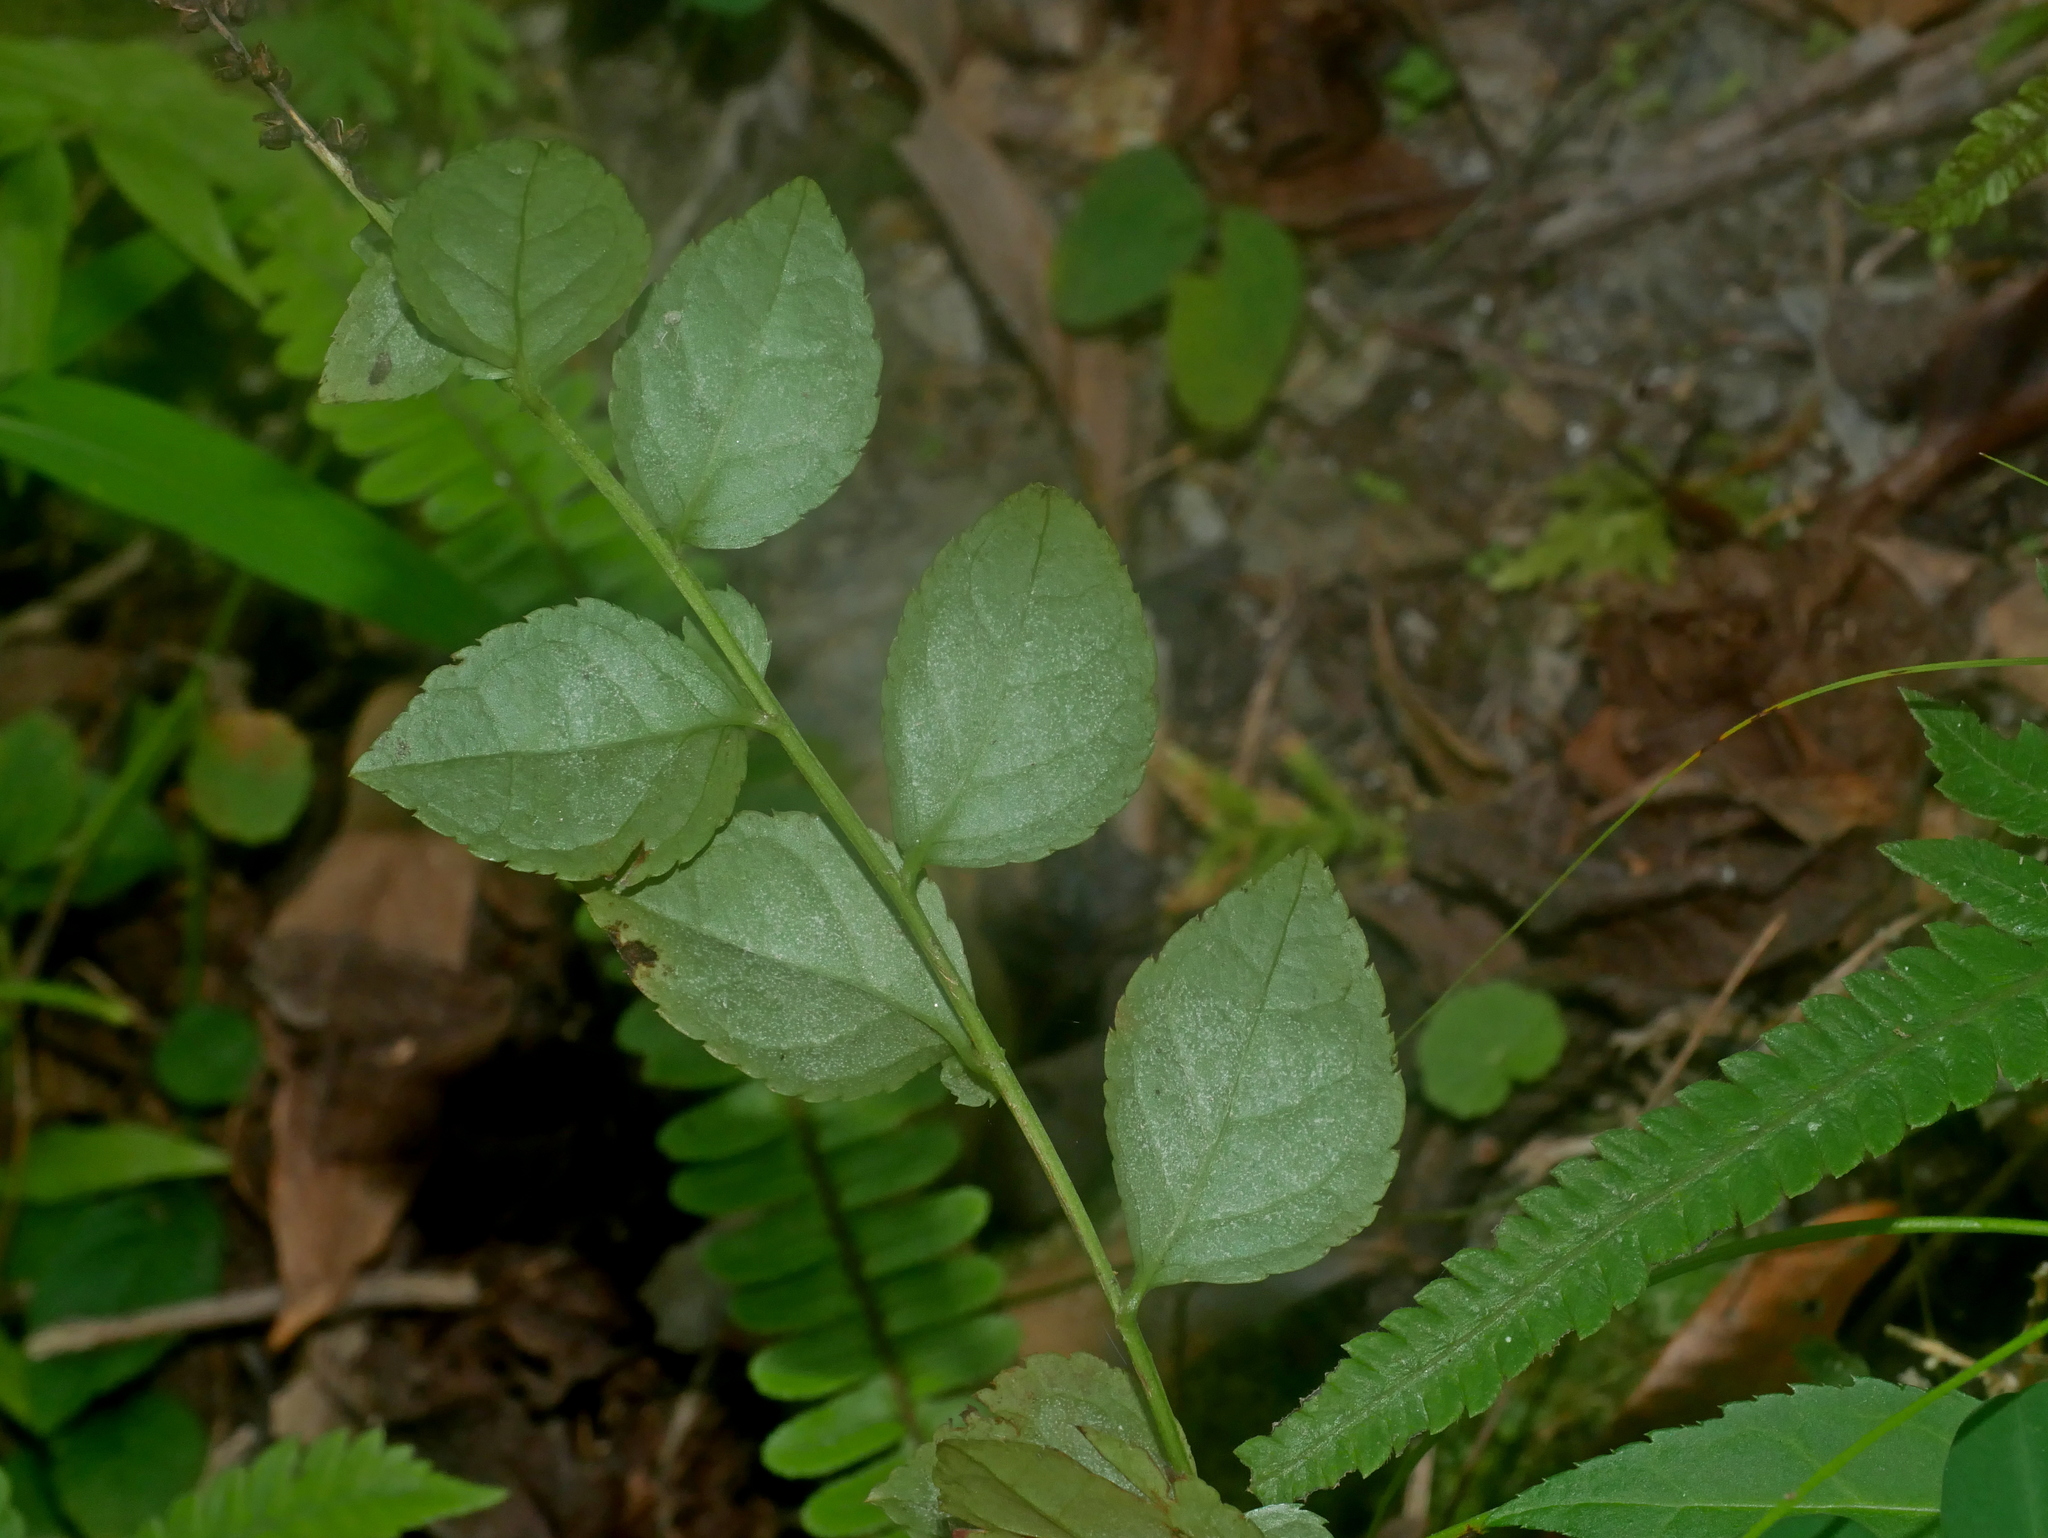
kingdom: Plantae
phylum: Tracheophyta
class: Magnoliopsida
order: Lamiales
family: Plantaginaceae
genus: Veronicastrum
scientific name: Veronicastrum loshanense
